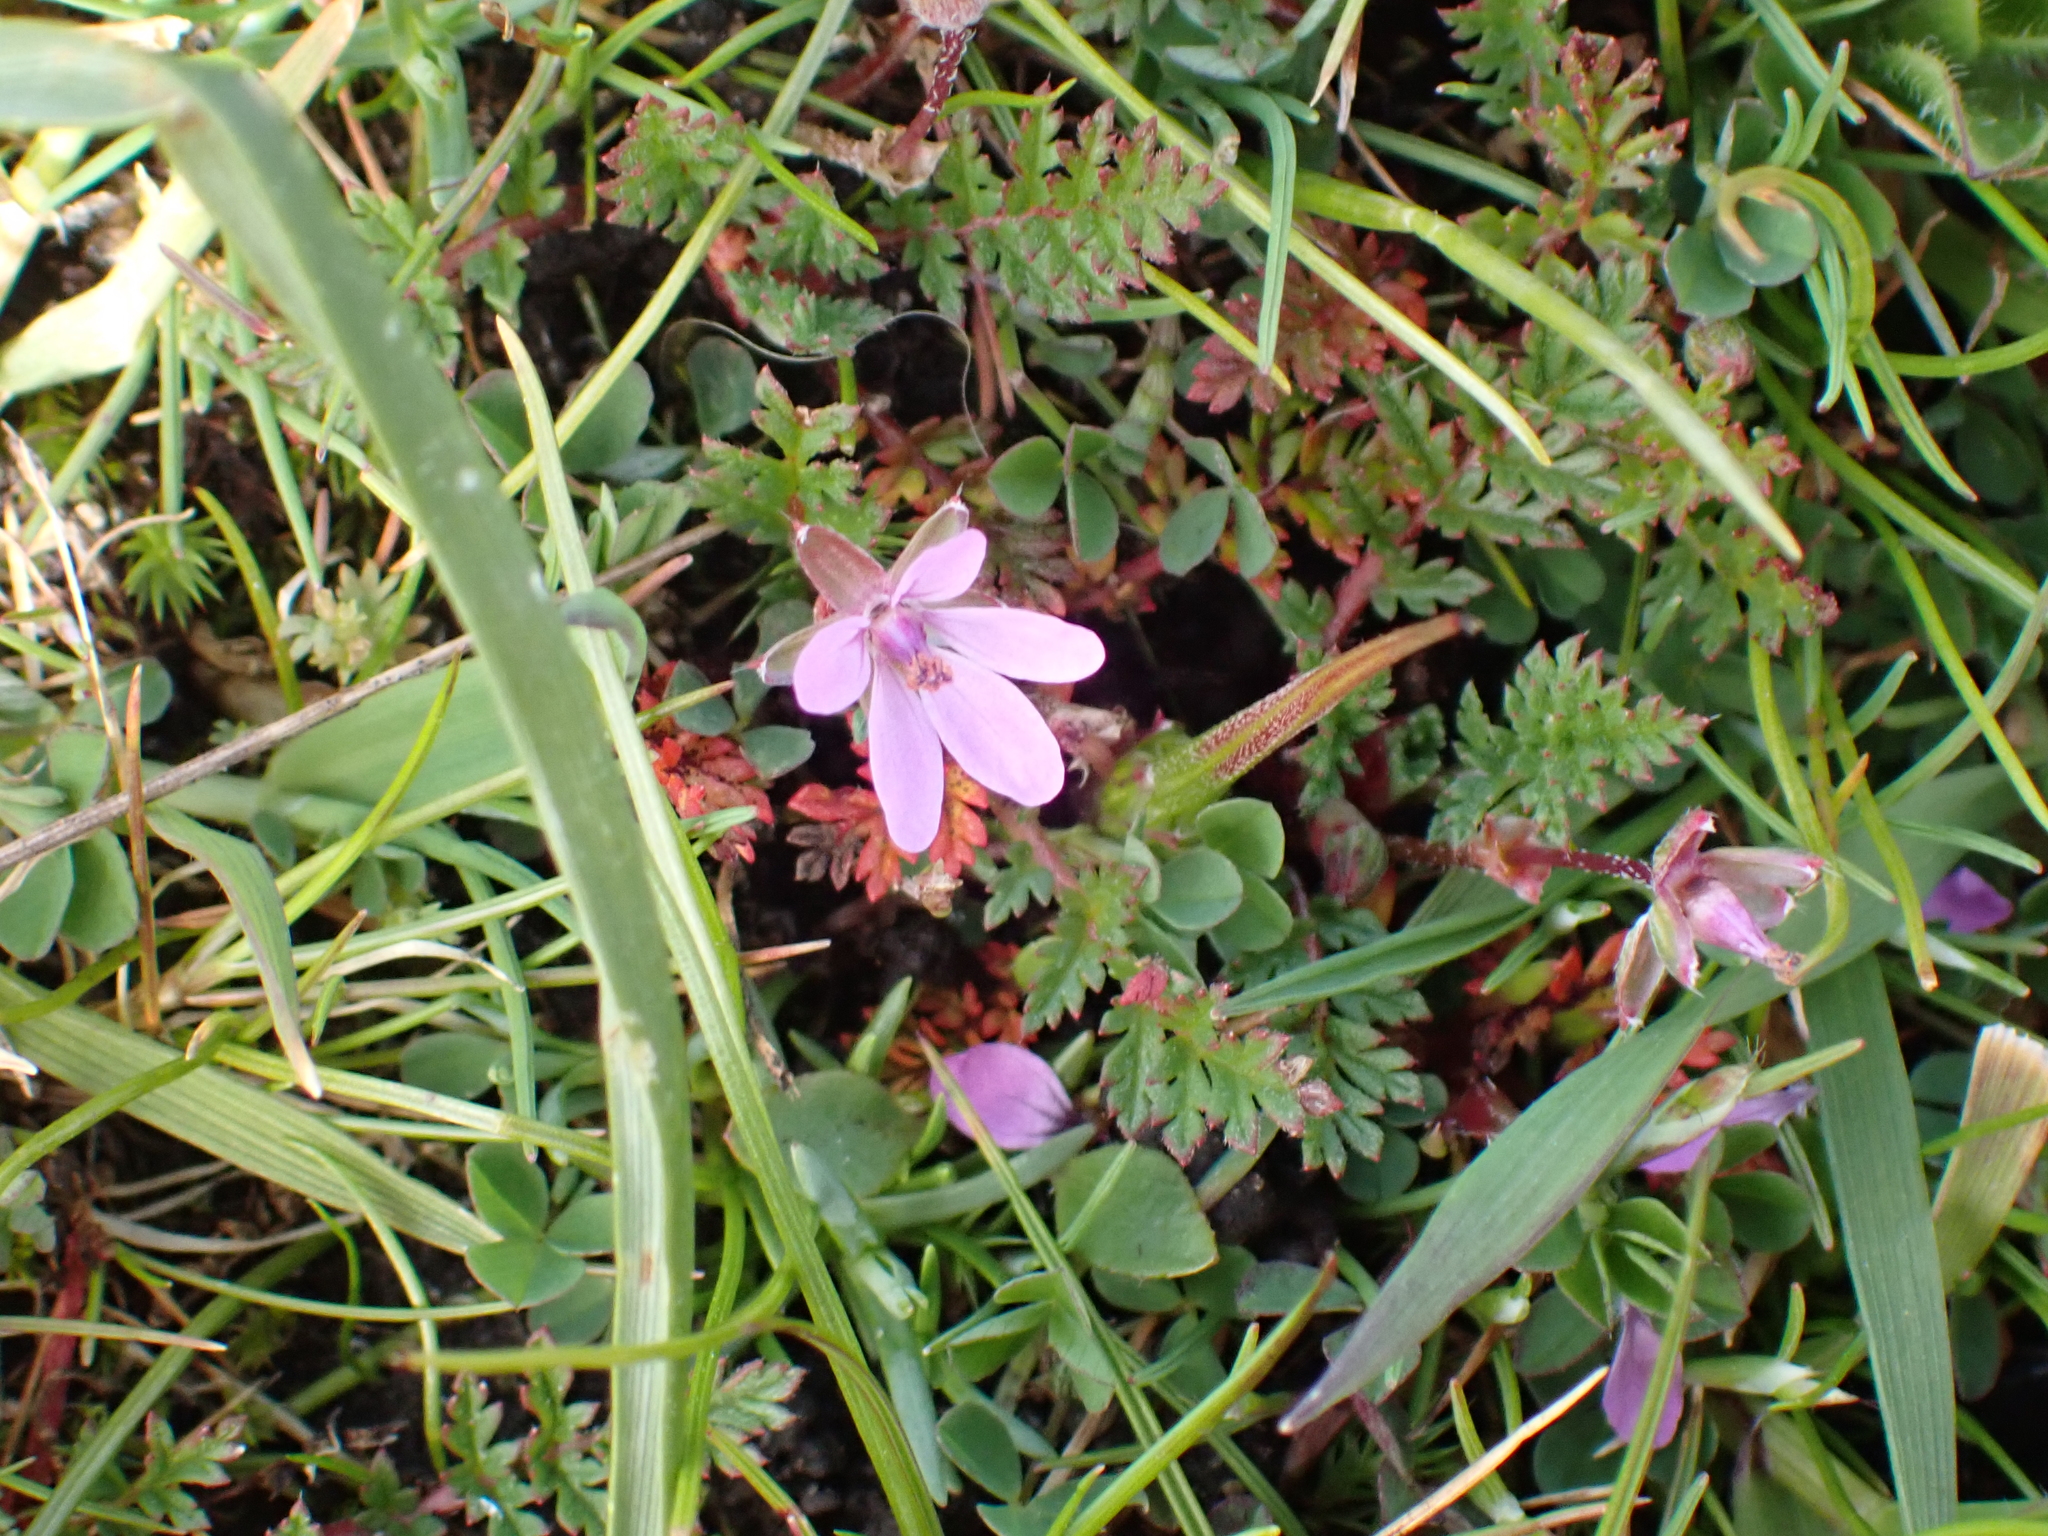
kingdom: Plantae
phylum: Tracheophyta
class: Magnoliopsida
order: Geraniales
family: Geraniaceae
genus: Erodium
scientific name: Erodium cicutarium
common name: Common stork's-bill
